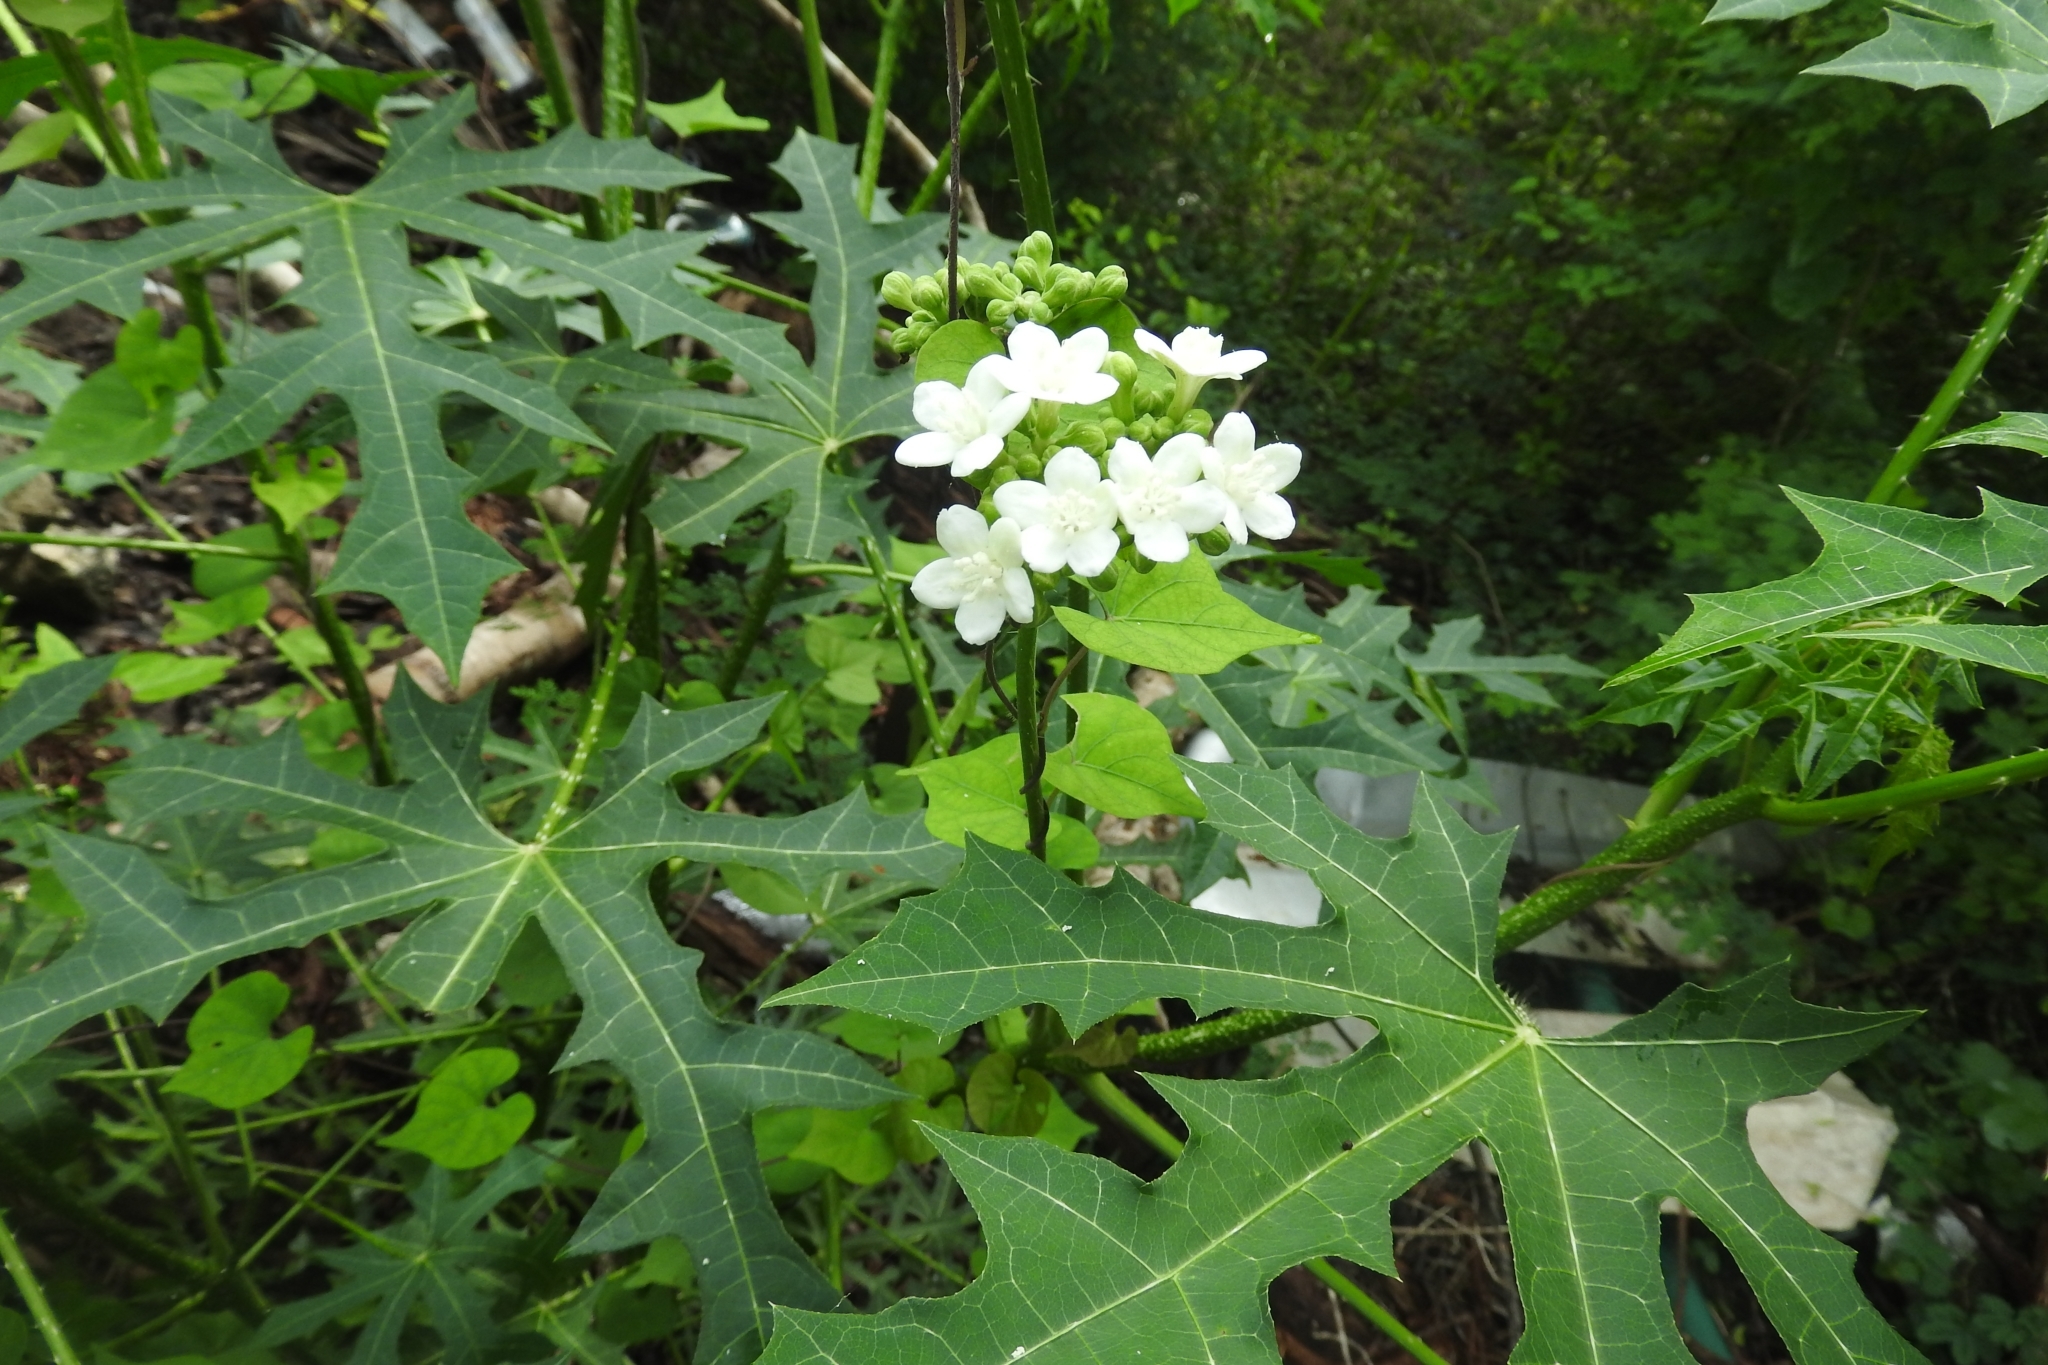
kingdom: Plantae
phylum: Tracheophyta
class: Magnoliopsida
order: Malpighiales
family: Euphorbiaceae
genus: Cnidoscolus
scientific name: Cnidoscolus aconitifolius
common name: Cabbage-star
